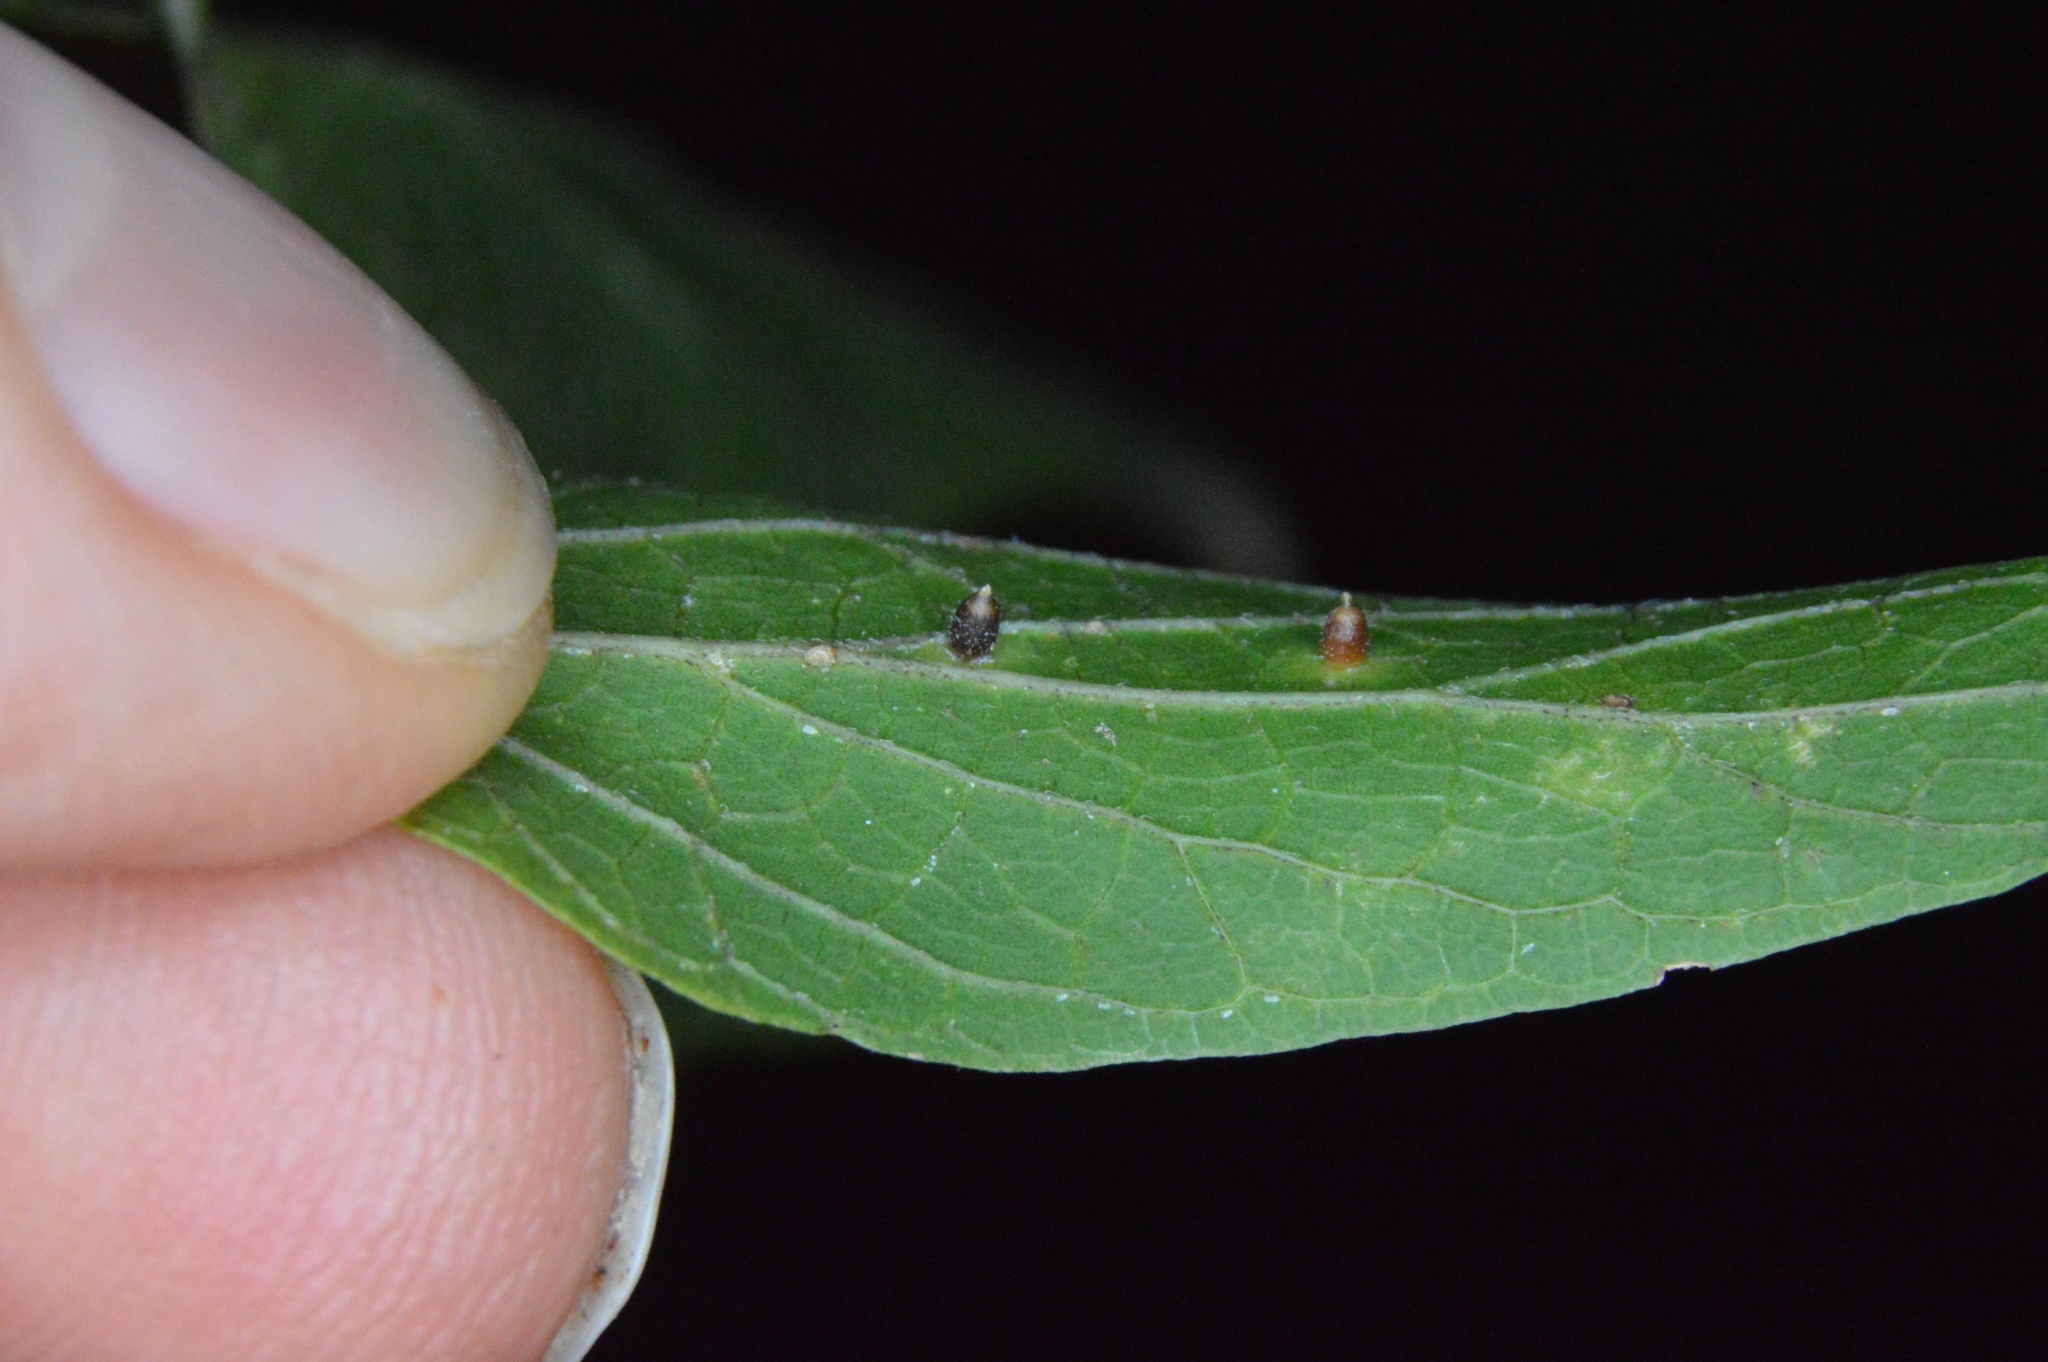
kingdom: Animalia
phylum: Arthropoda
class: Insecta
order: Diptera
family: Cecidomyiidae
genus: Celticecis
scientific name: Celticecis cupiformis
